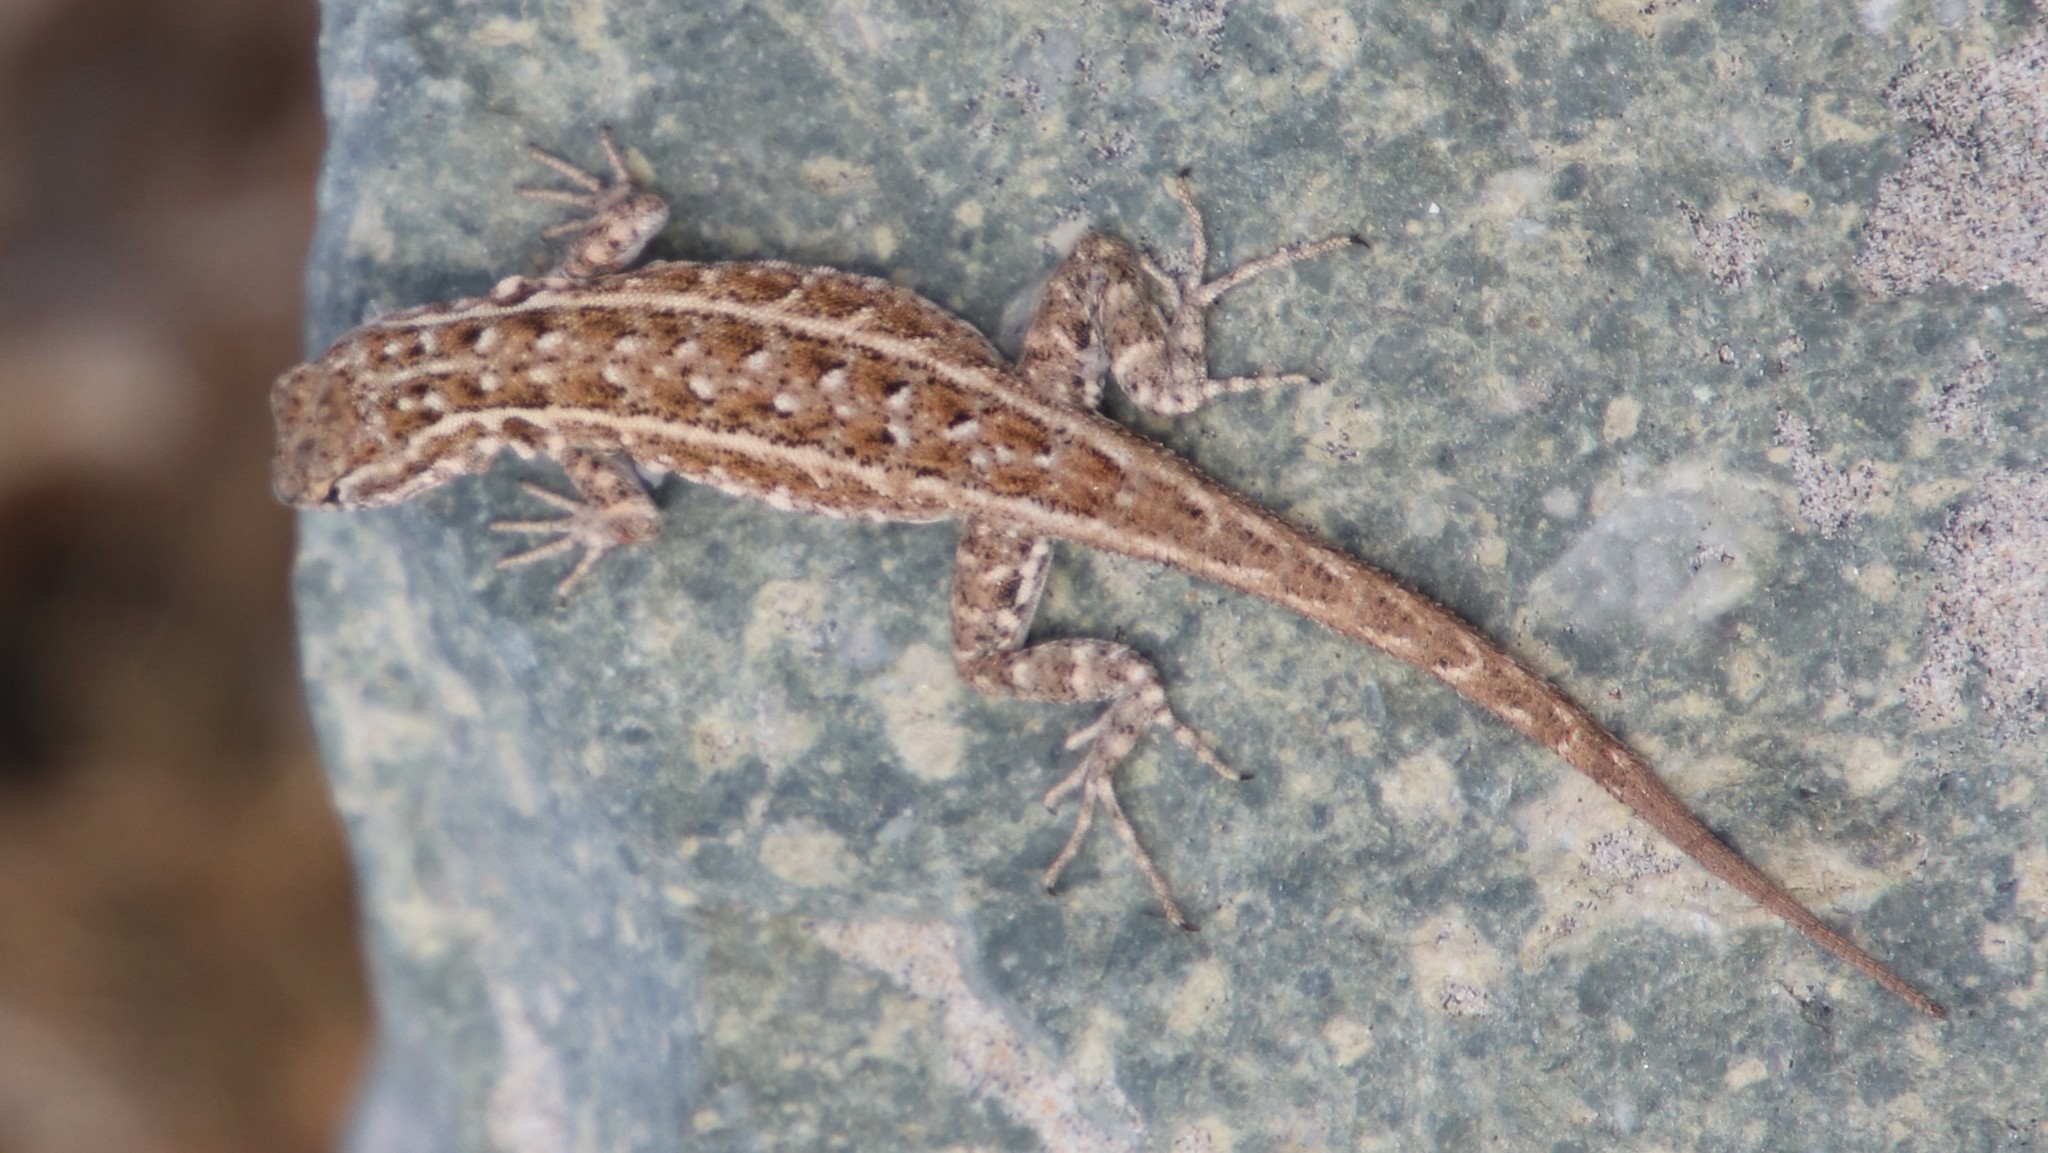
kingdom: Animalia
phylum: Chordata
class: Squamata
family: Phrynosomatidae
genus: Uta
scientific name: Uta stansburiana
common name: Side-blotched lizard
